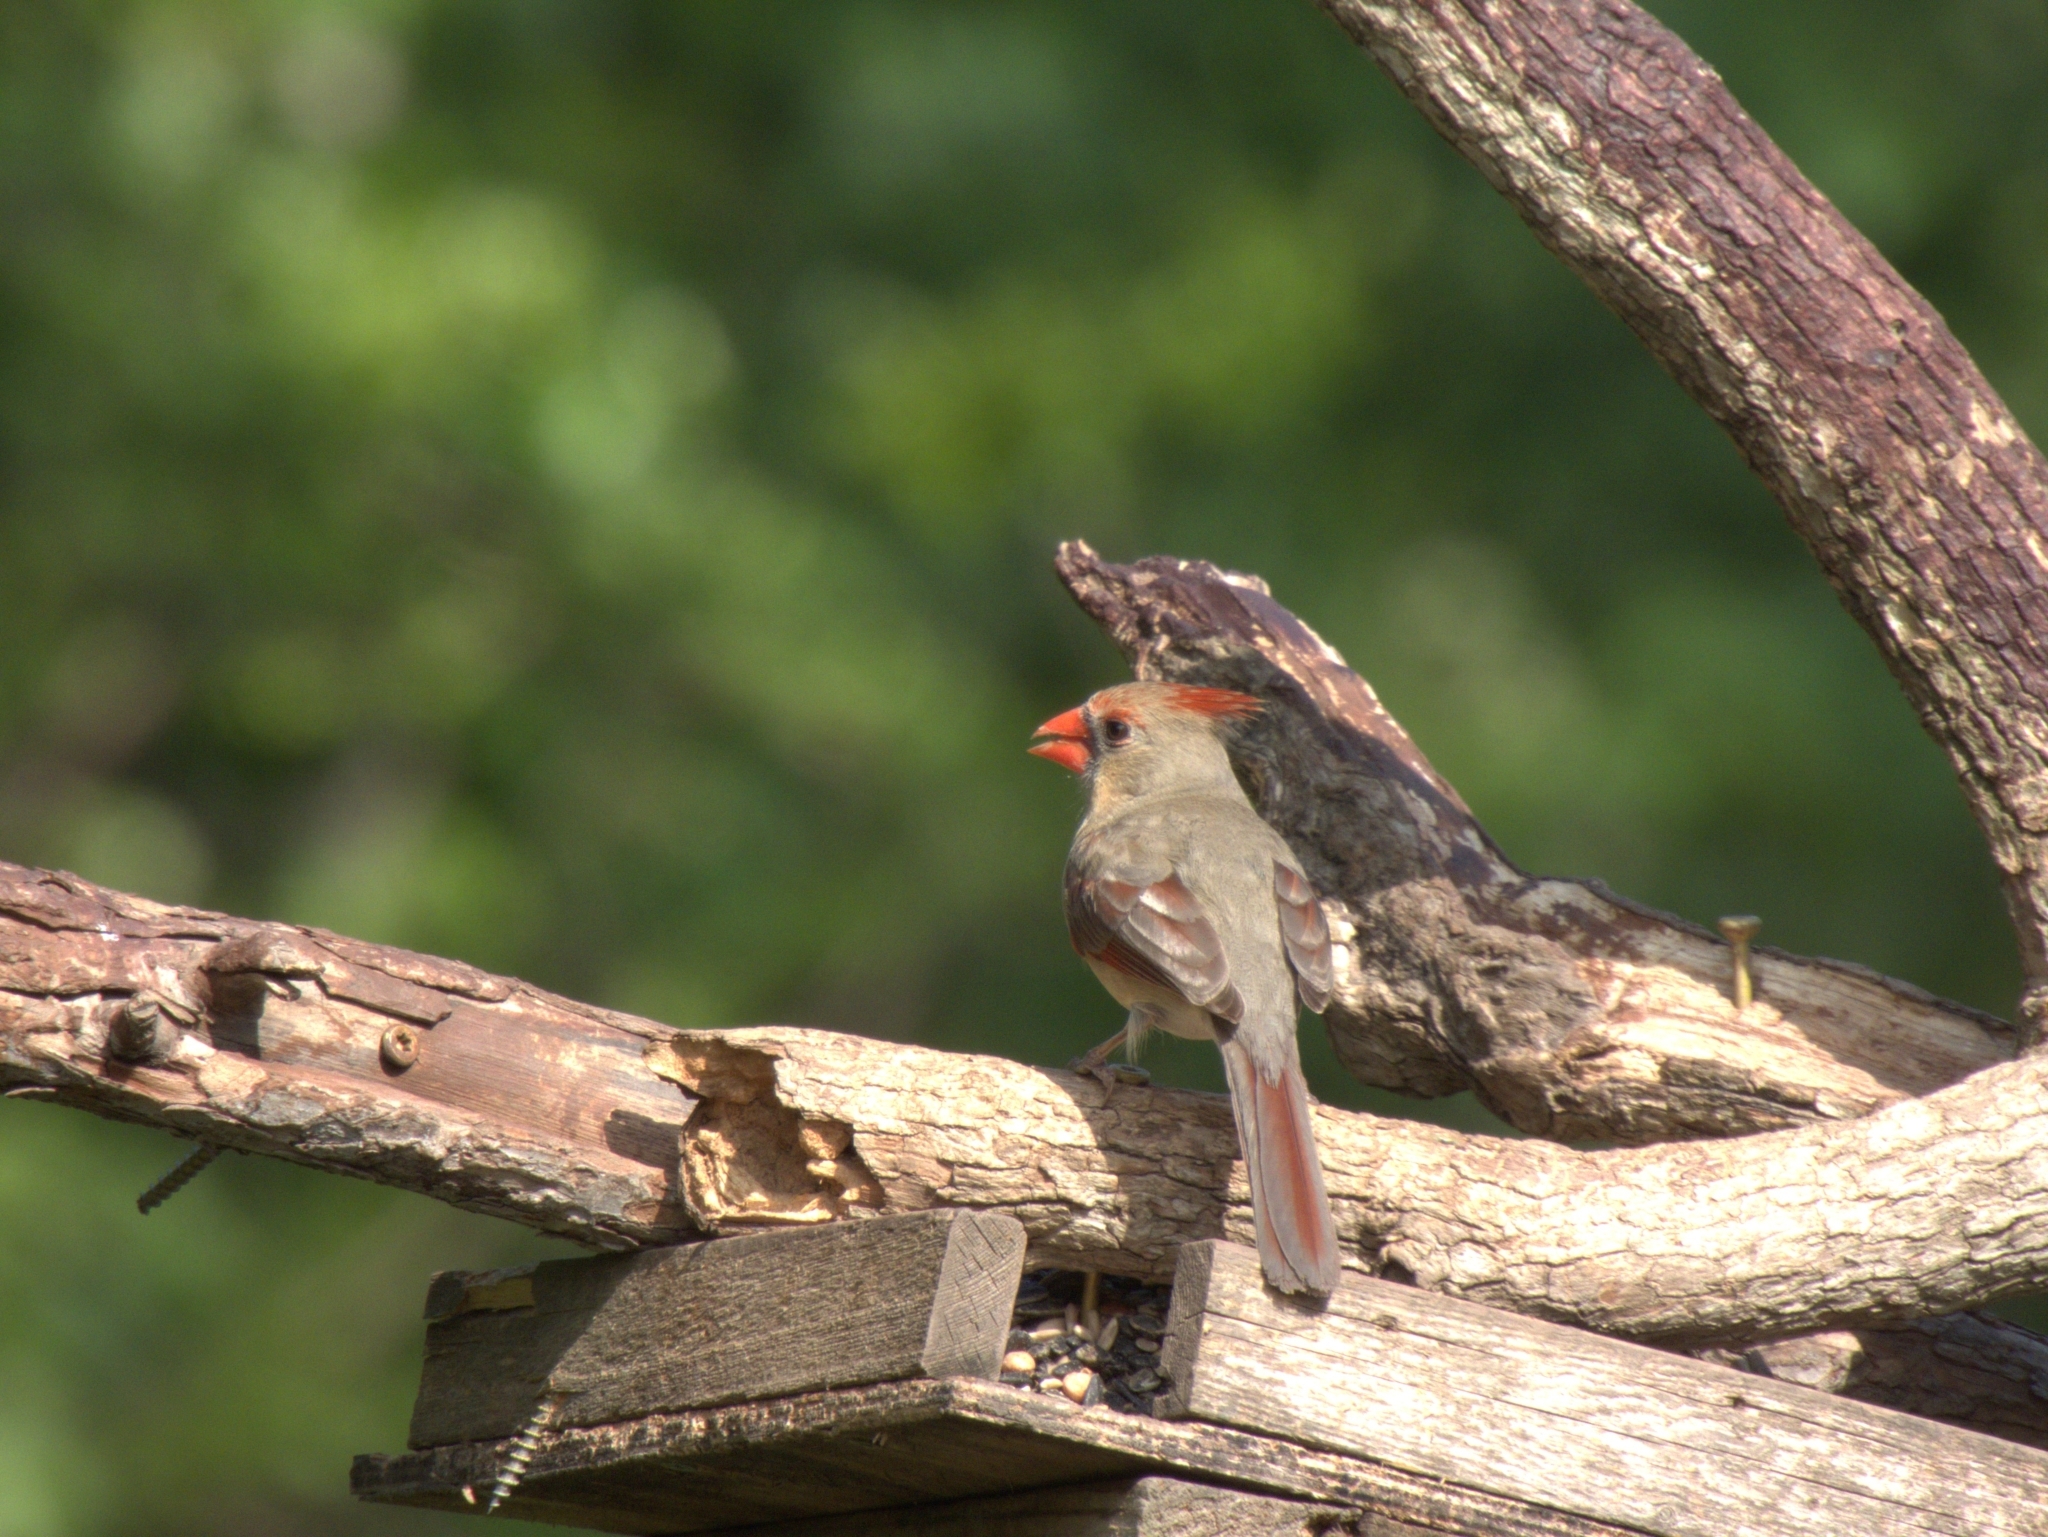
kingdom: Animalia
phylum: Chordata
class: Aves
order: Passeriformes
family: Cardinalidae
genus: Cardinalis
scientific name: Cardinalis cardinalis
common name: Northern cardinal
